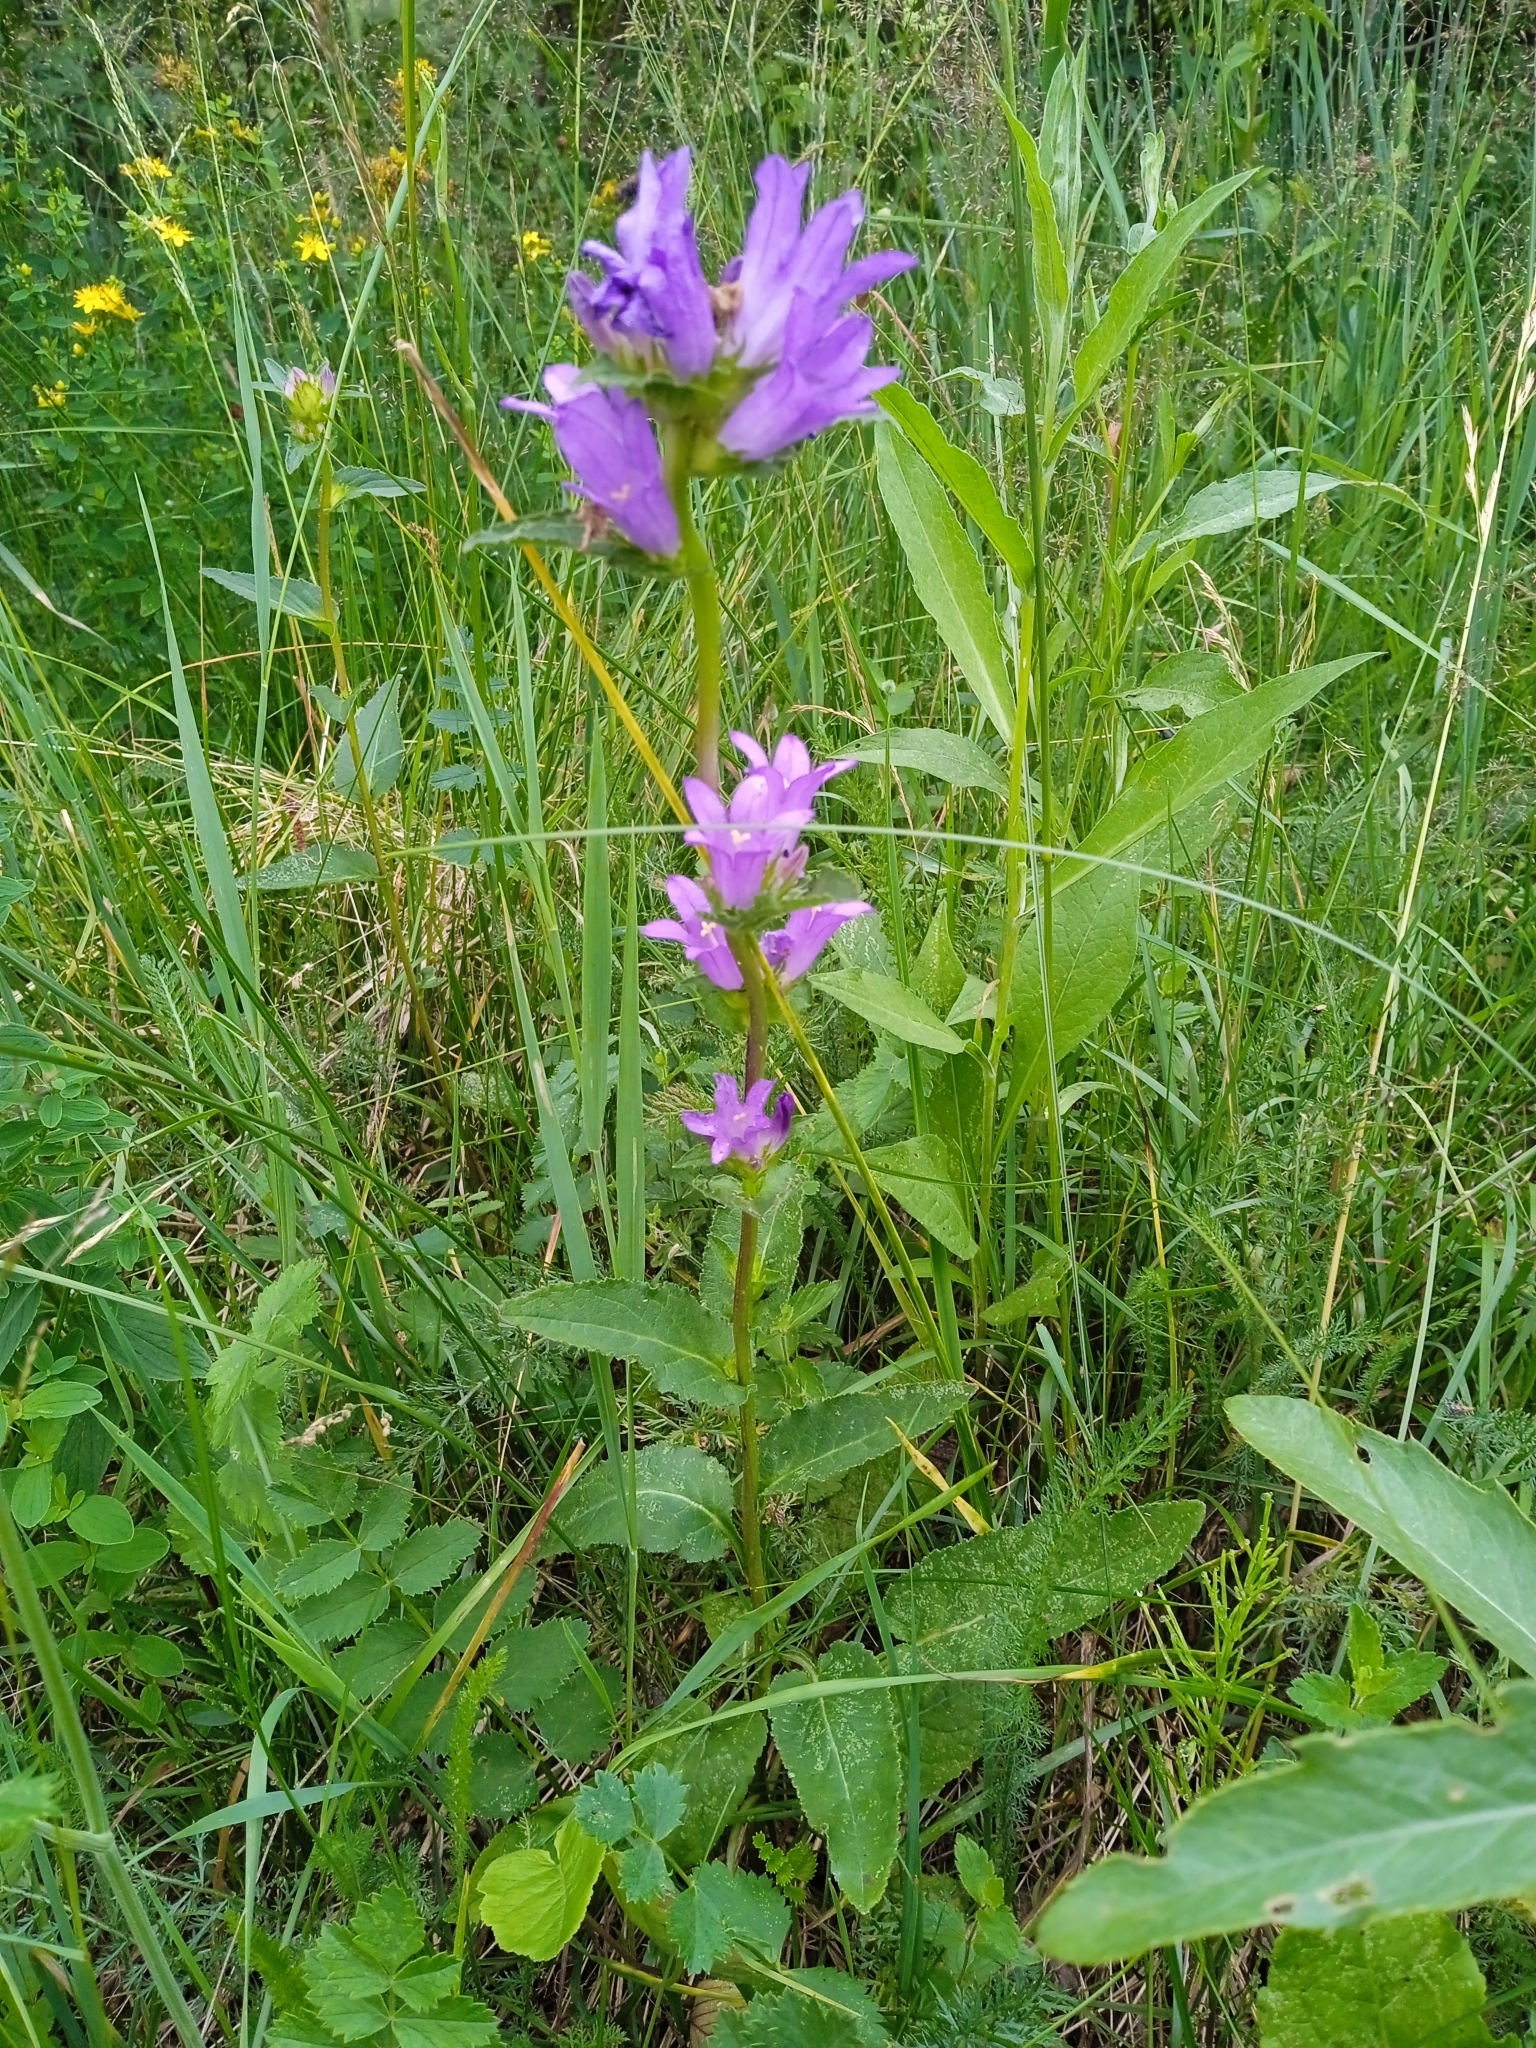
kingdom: Plantae
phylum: Tracheophyta
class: Magnoliopsida
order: Asterales
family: Campanulaceae
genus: Campanula
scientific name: Campanula glomerata
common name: Clustered bellflower
